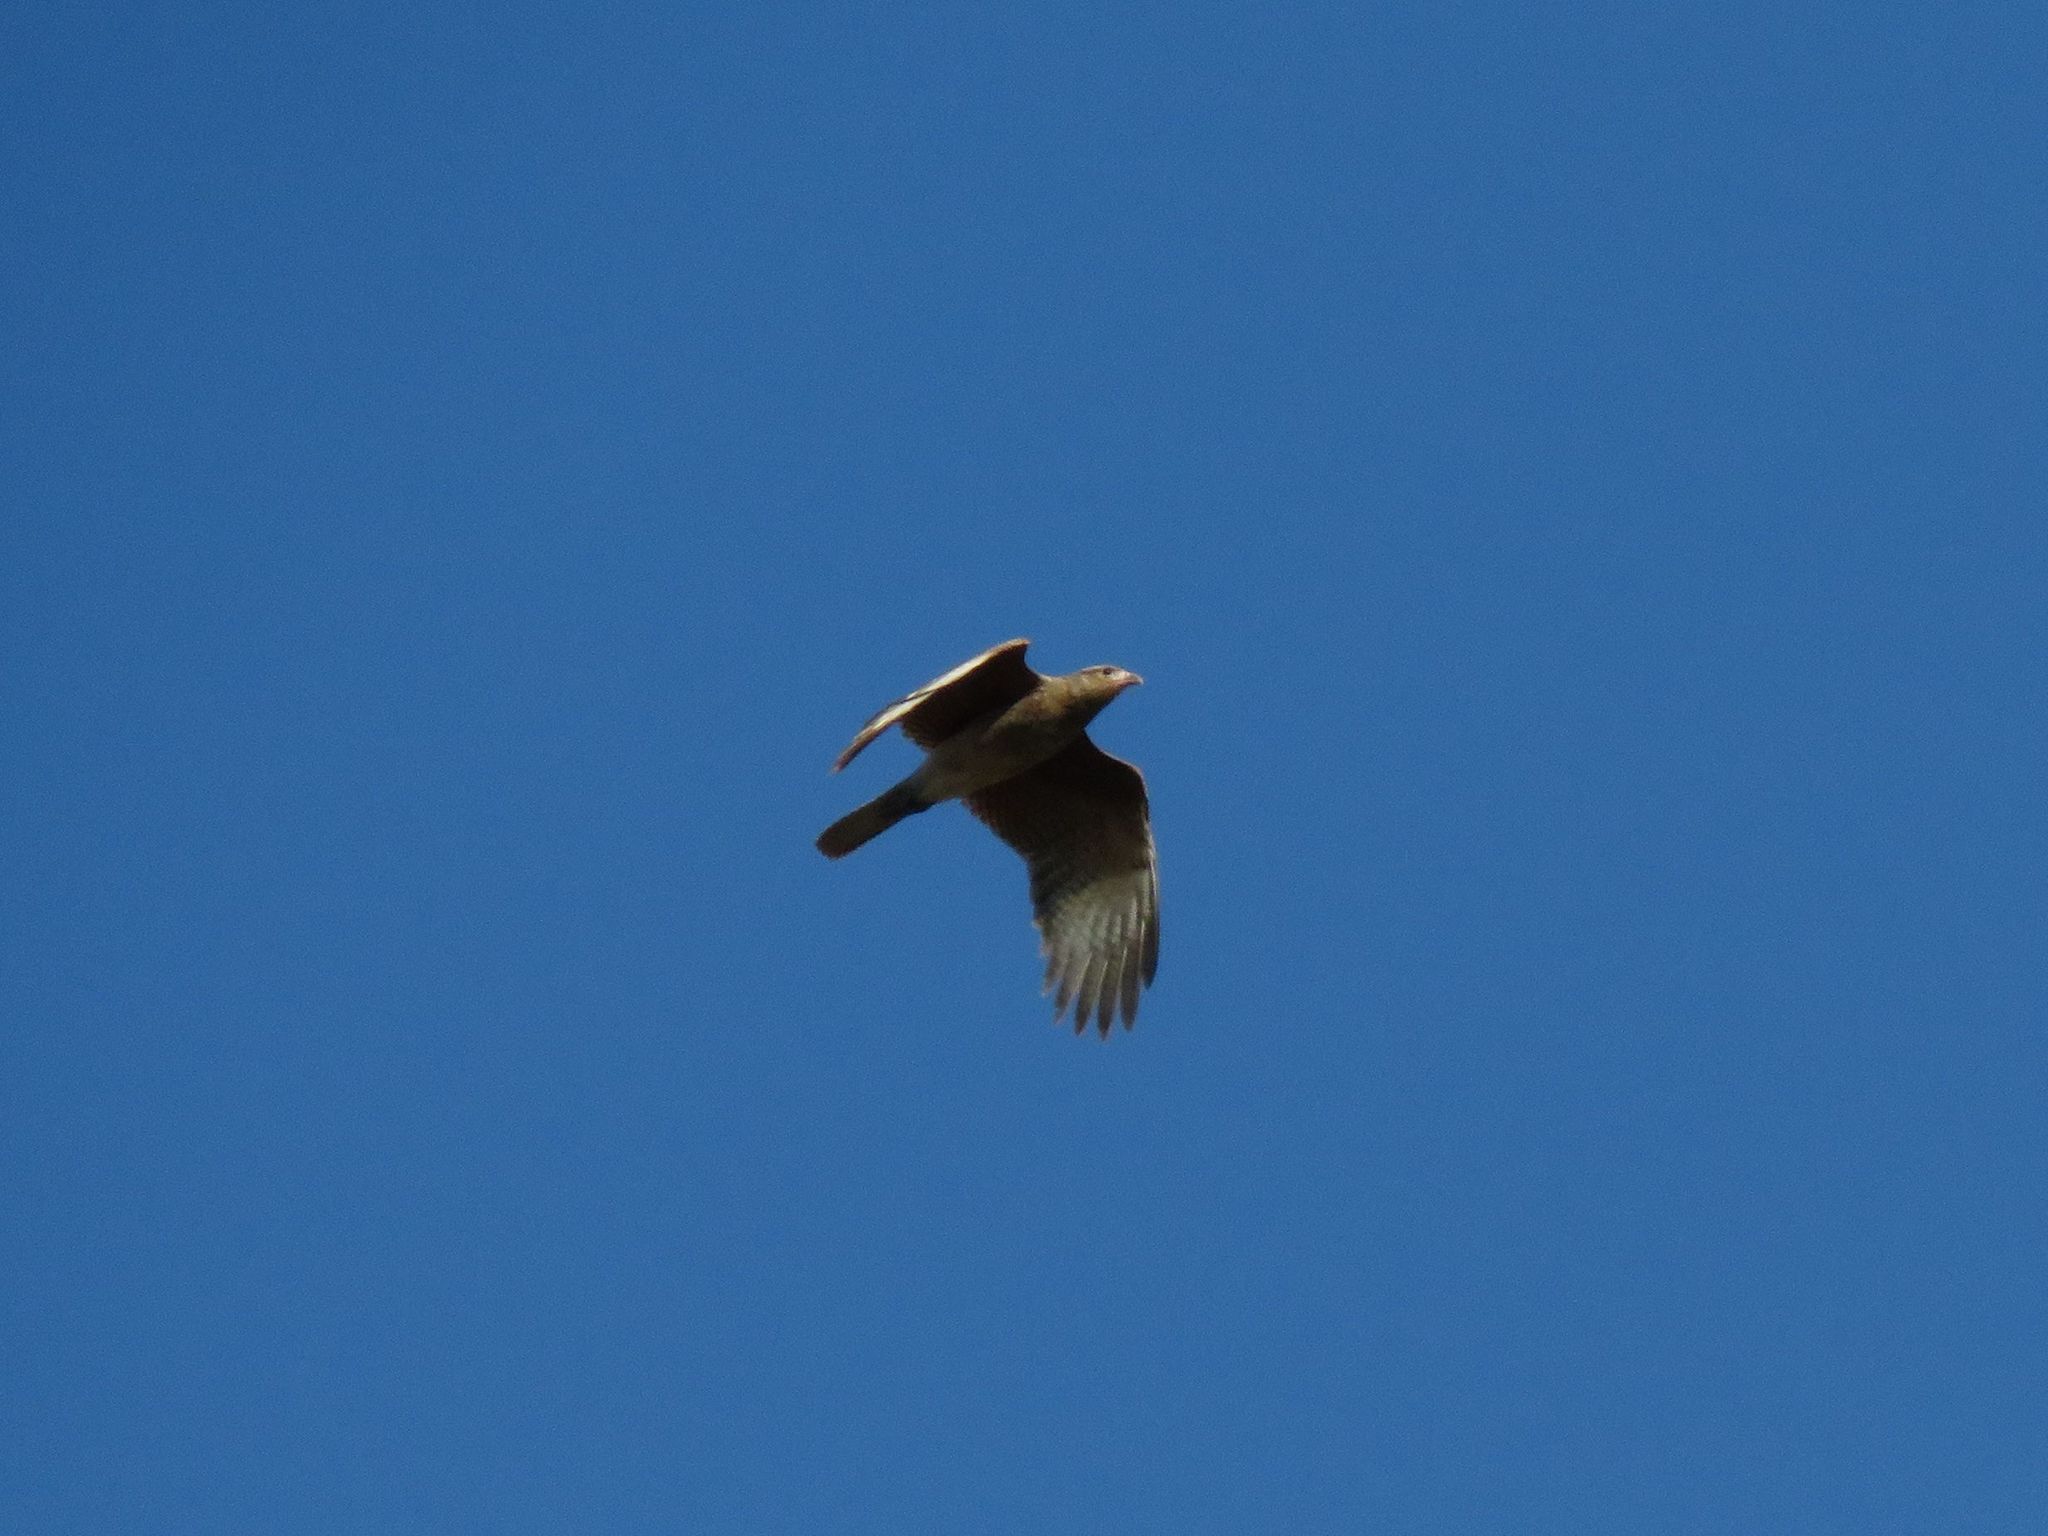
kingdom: Animalia
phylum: Chordata
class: Aves
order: Falconiformes
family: Falconidae
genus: Daptrius
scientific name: Daptrius
